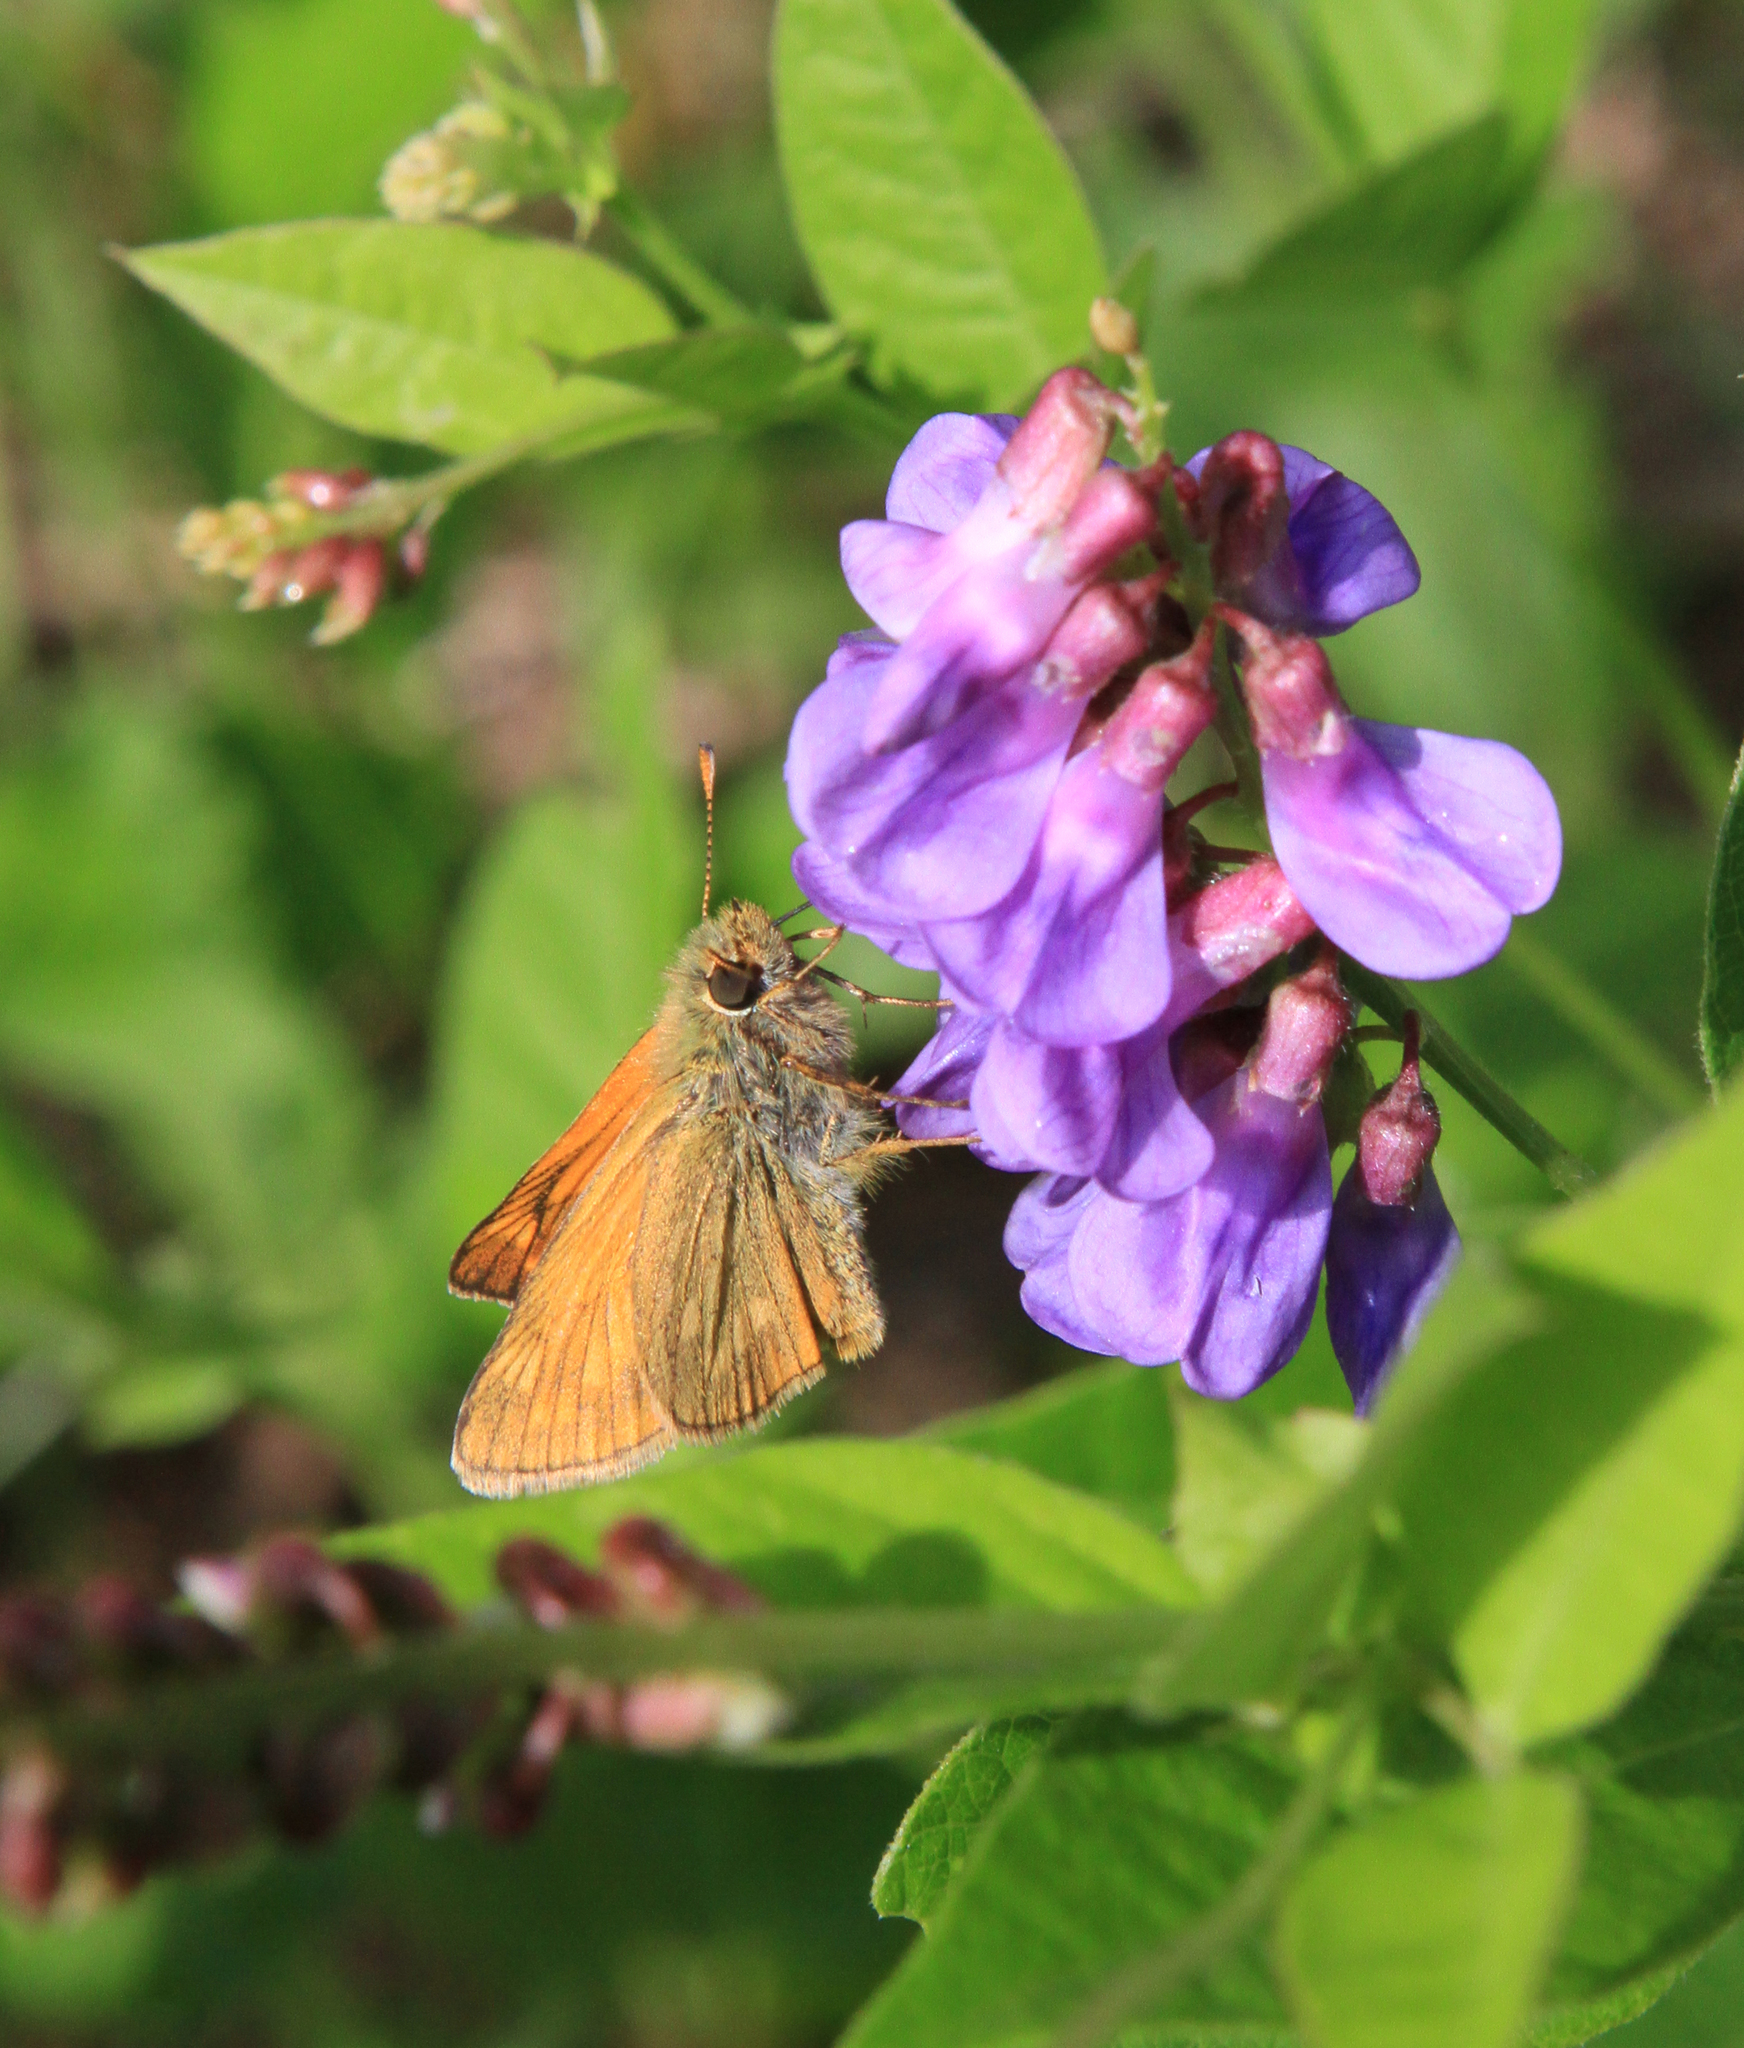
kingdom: Animalia
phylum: Arthropoda
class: Insecta
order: Lepidoptera
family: Hesperiidae
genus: Ochlodes
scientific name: Ochlodes venata
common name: Large skipper
